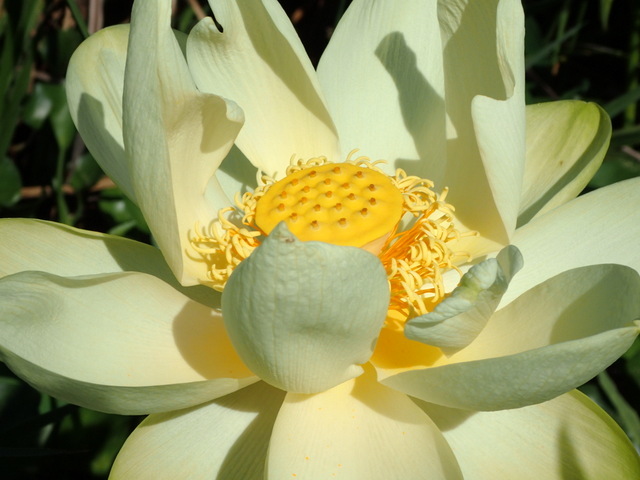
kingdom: Plantae
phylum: Tracheophyta
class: Magnoliopsida
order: Proteales
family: Nelumbonaceae
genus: Nelumbo
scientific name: Nelumbo lutea
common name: American lotus
